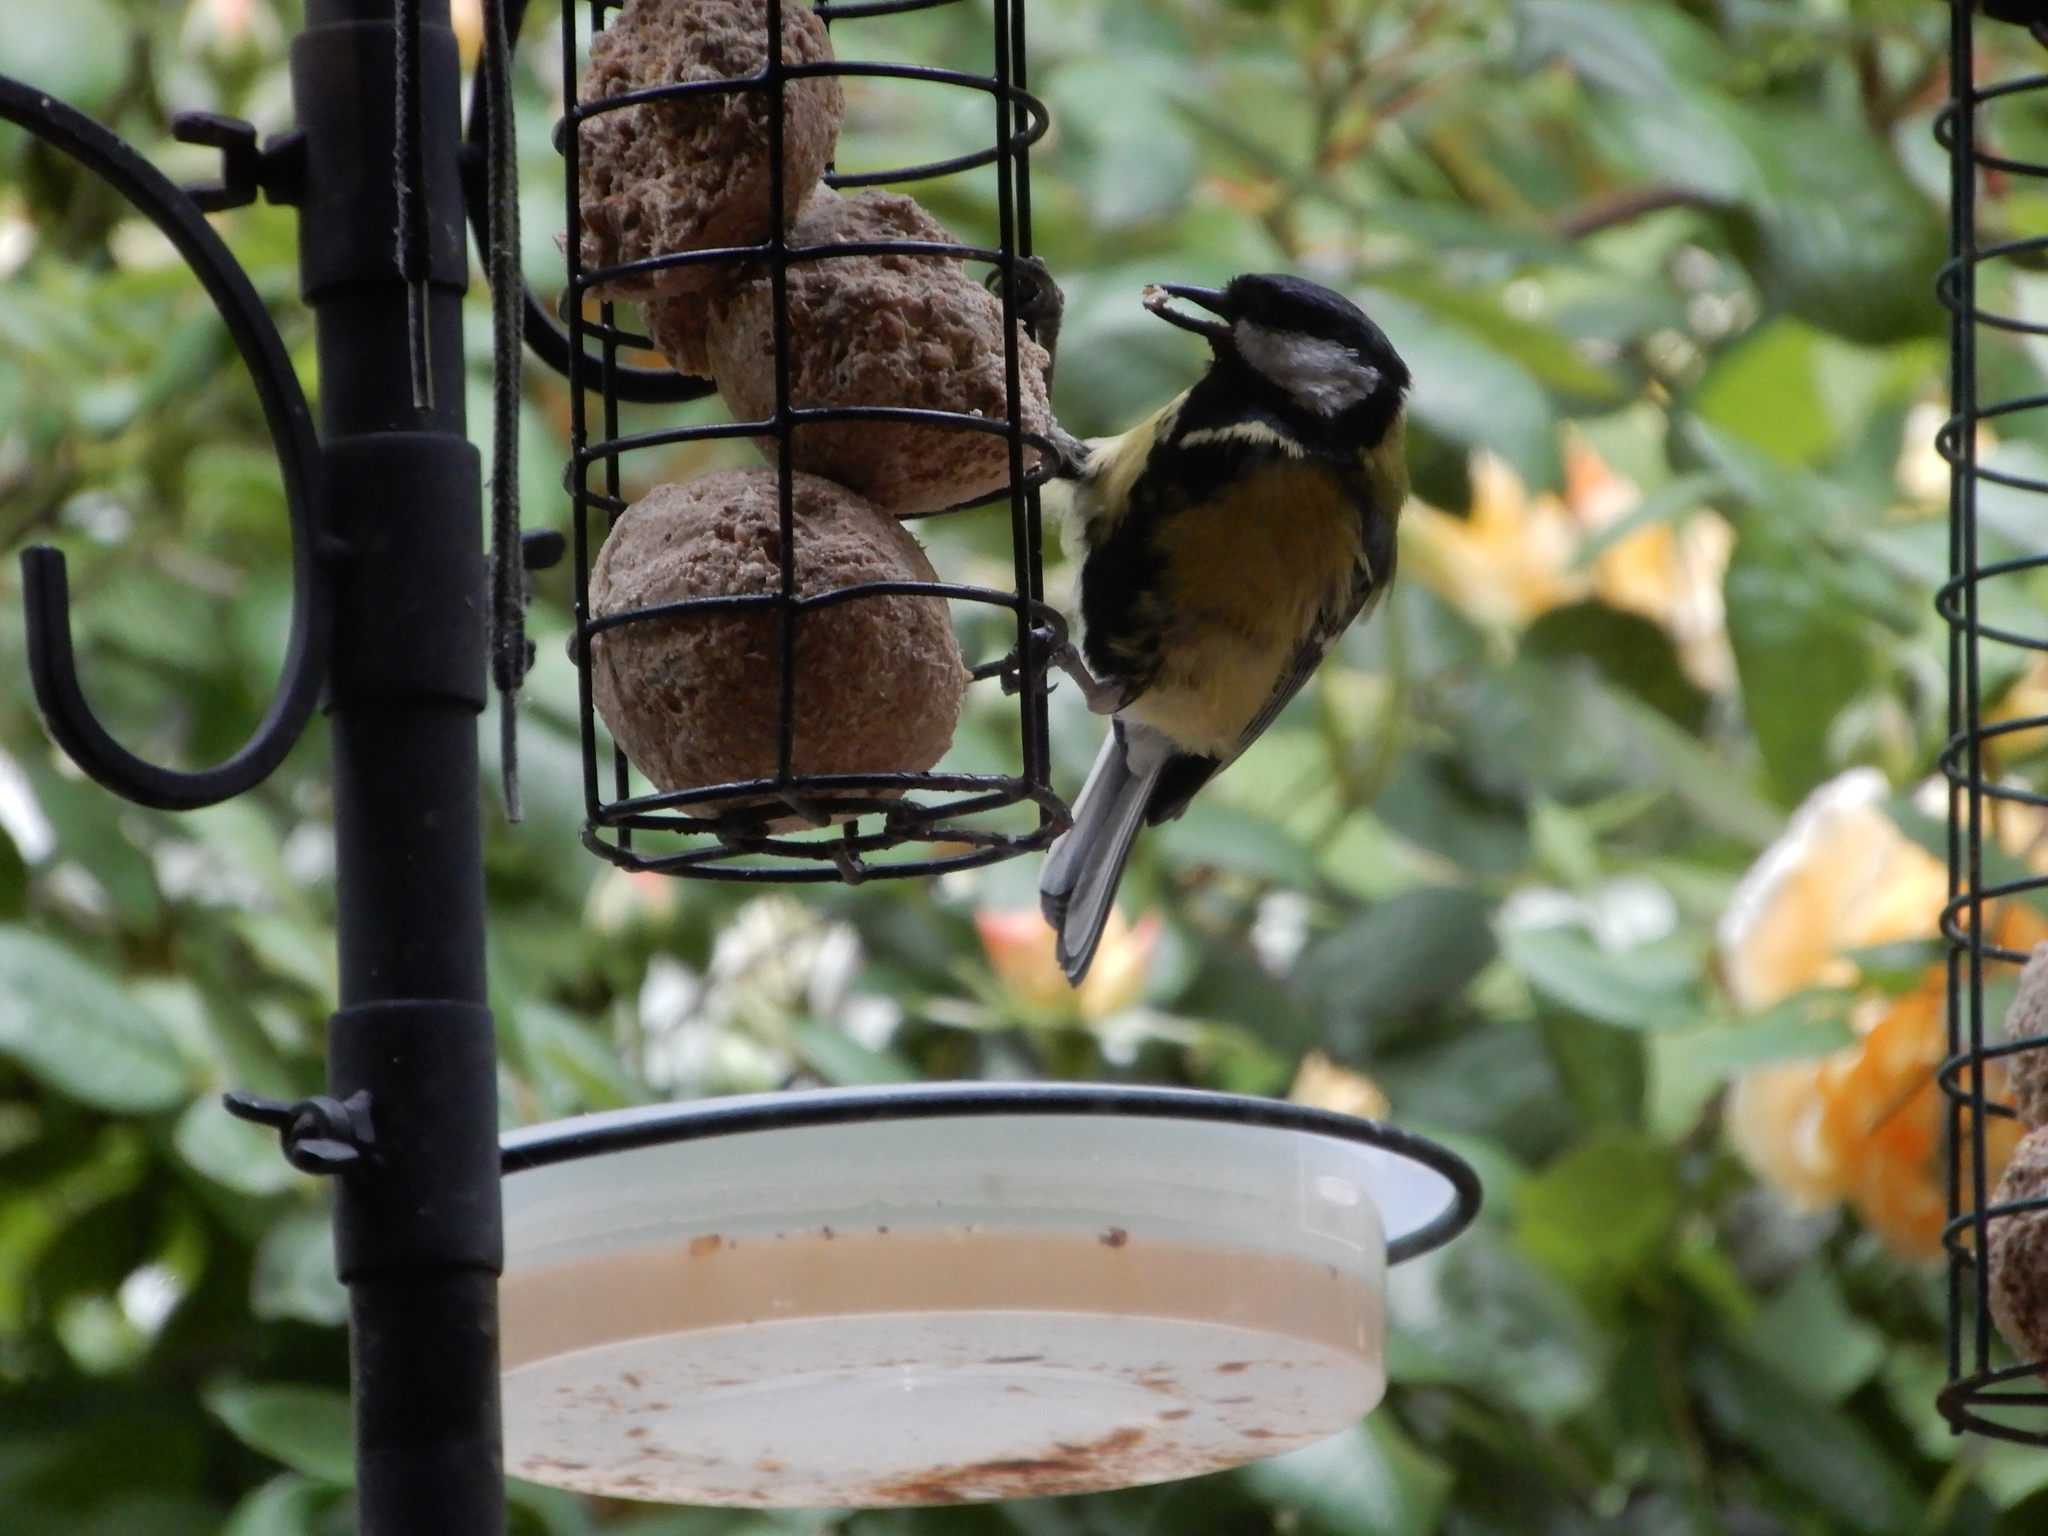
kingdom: Animalia
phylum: Chordata
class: Aves
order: Passeriformes
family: Paridae
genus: Parus
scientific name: Parus major
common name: Great tit
